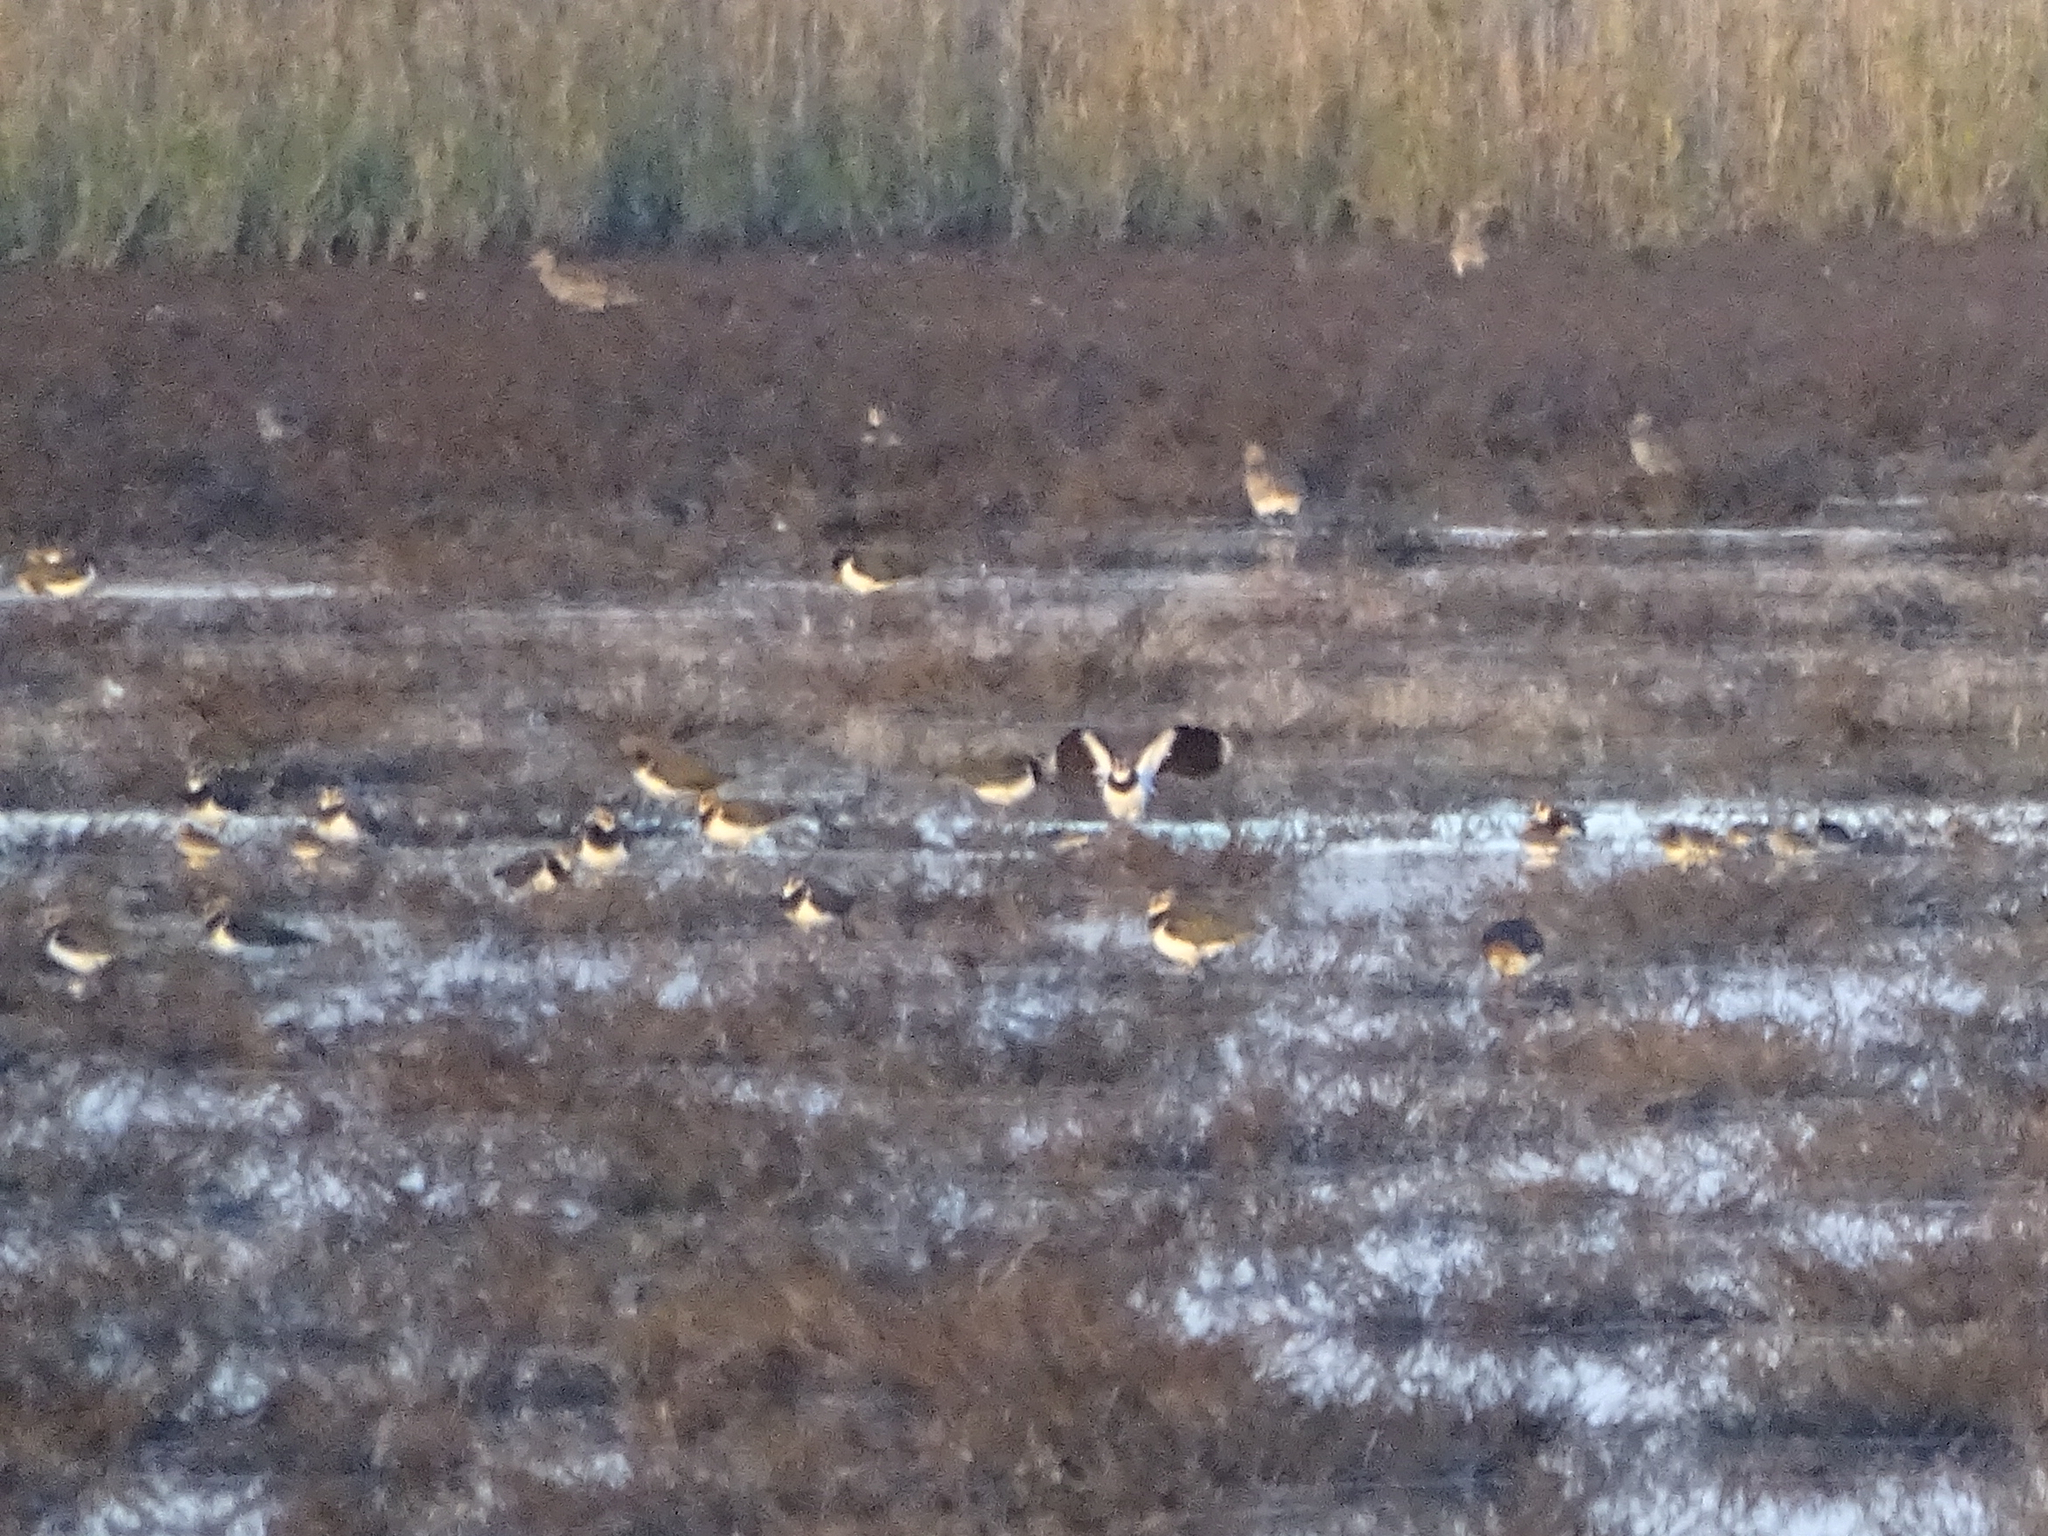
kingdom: Animalia
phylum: Chordata
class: Aves
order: Charadriiformes
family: Charadriidae
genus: Vanellus
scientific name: Vanellus vanellus
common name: Northern lapwing
